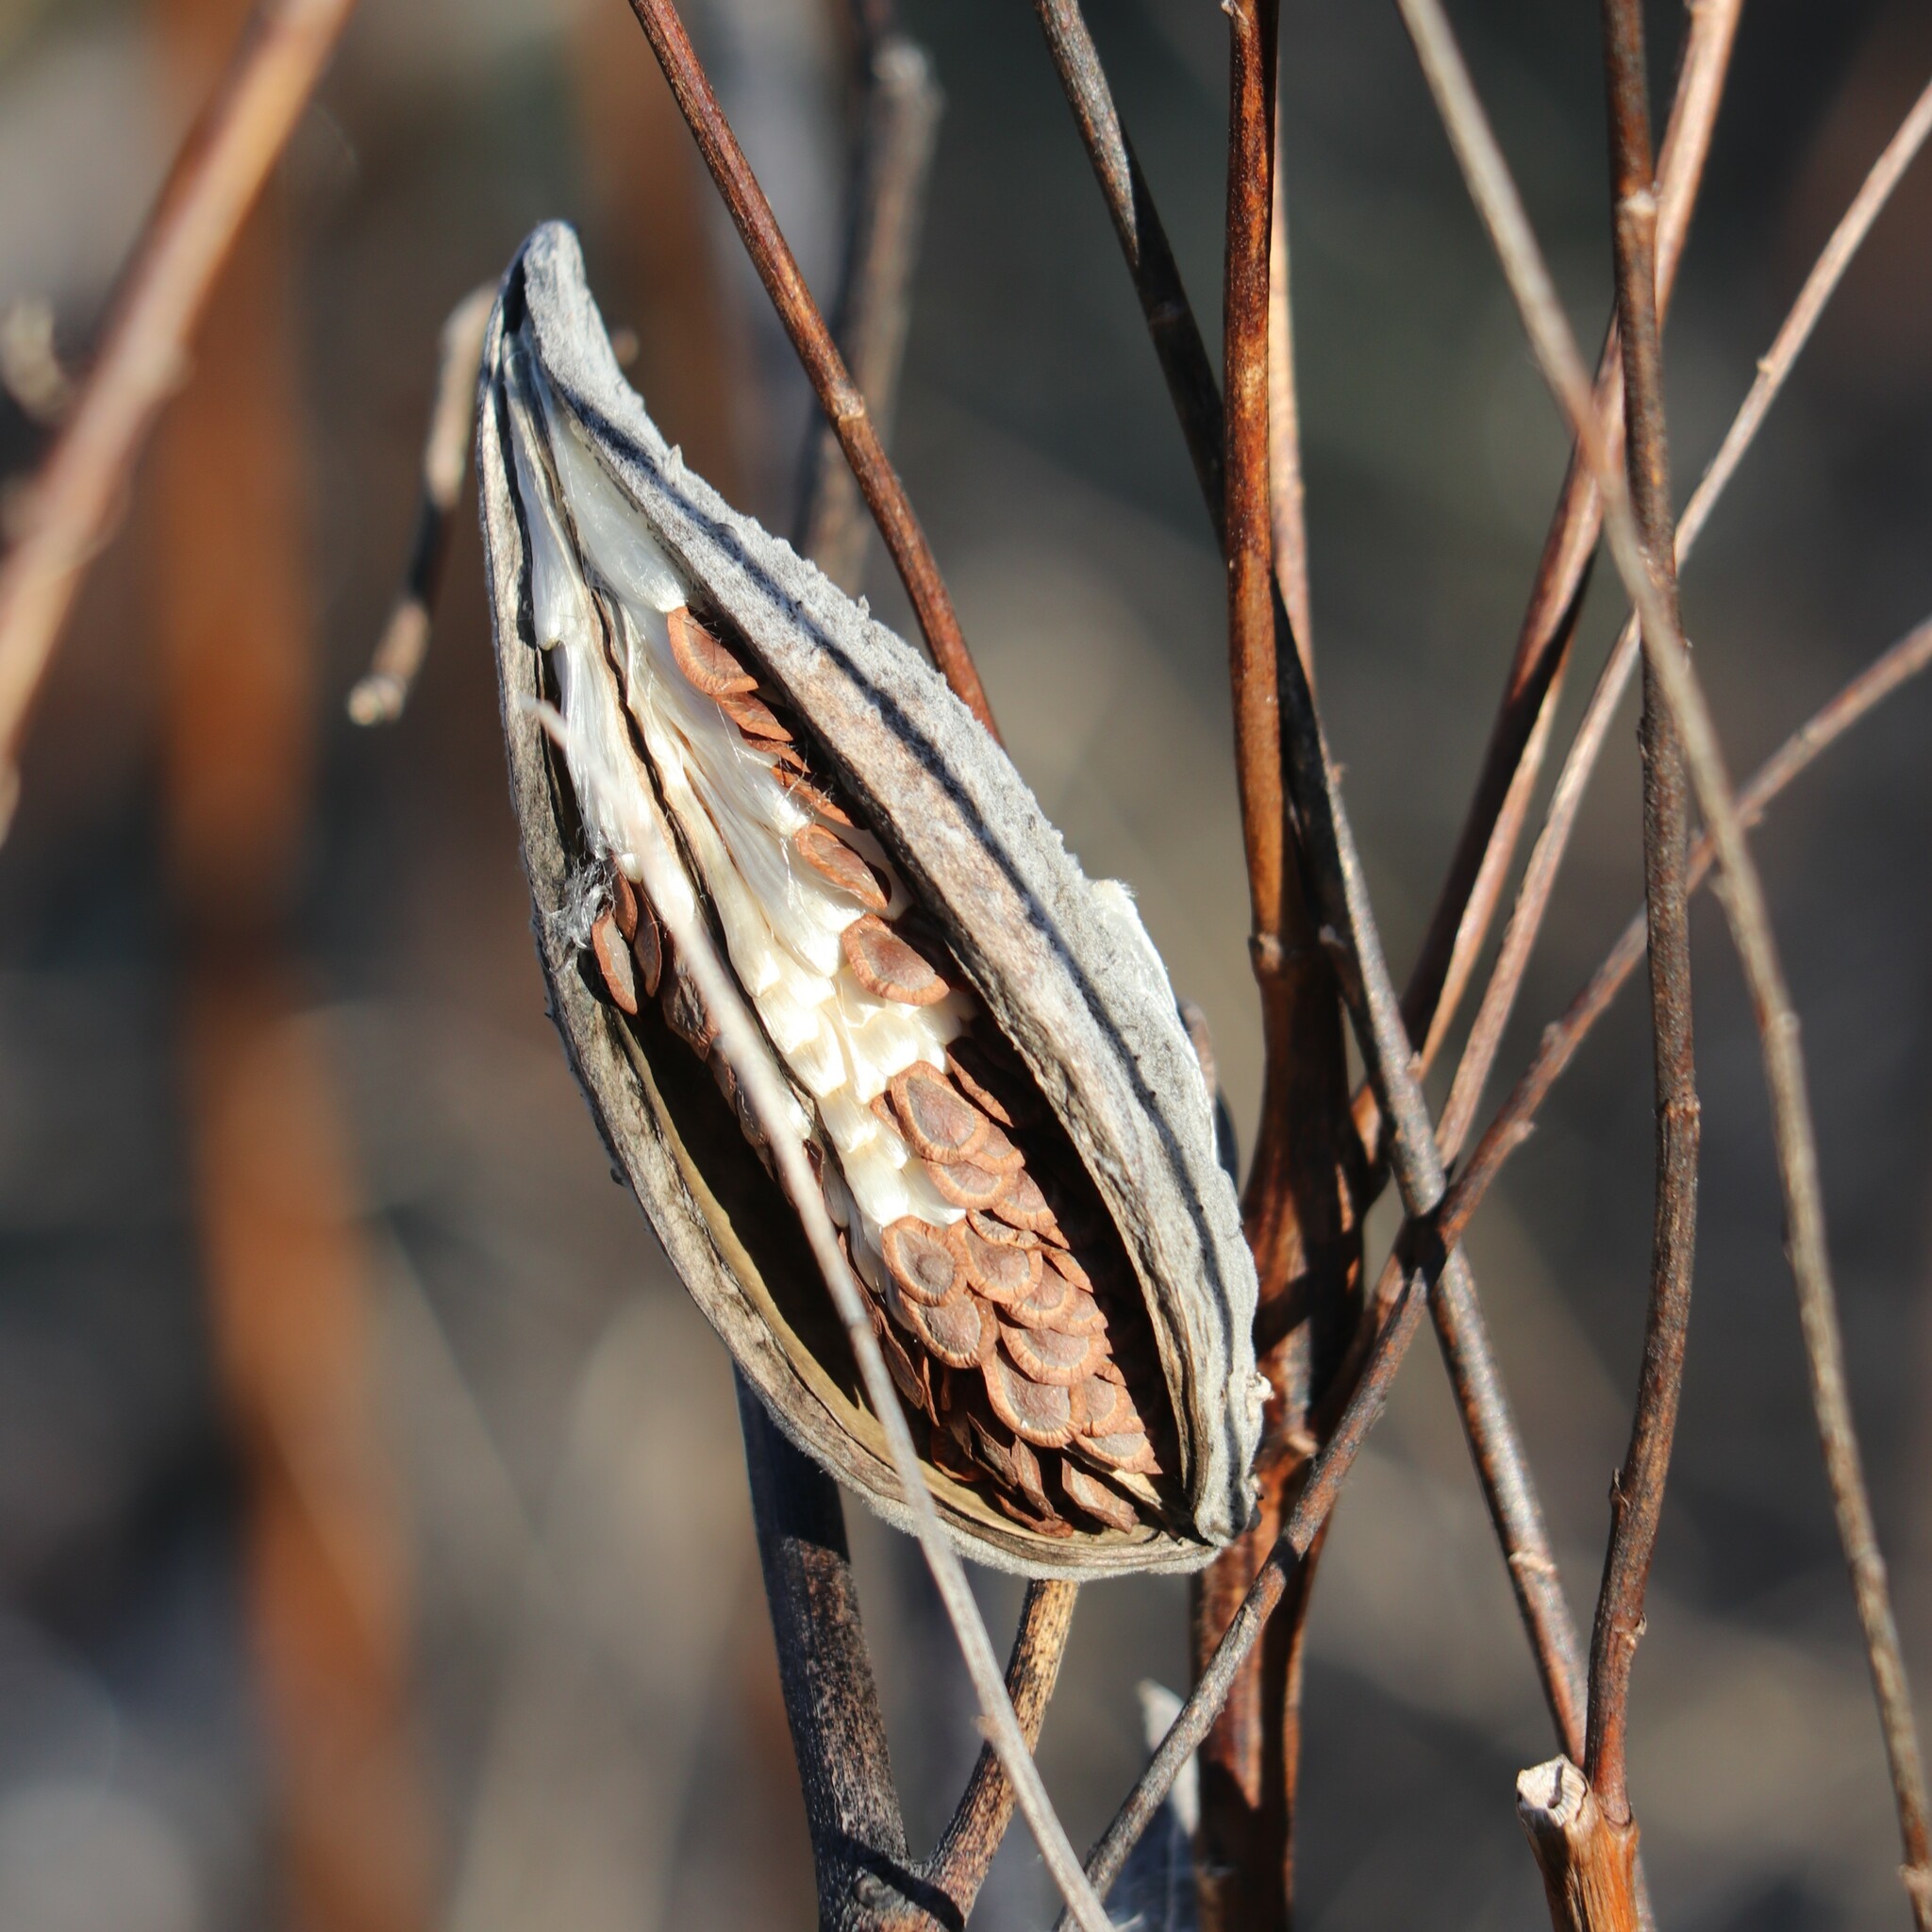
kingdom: Plantae
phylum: Tracheophyta
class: Magnoliopsida
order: Gentianales
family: Apocynaceae
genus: Asclepias
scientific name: Asclepias syriaca
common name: Common milkweed
